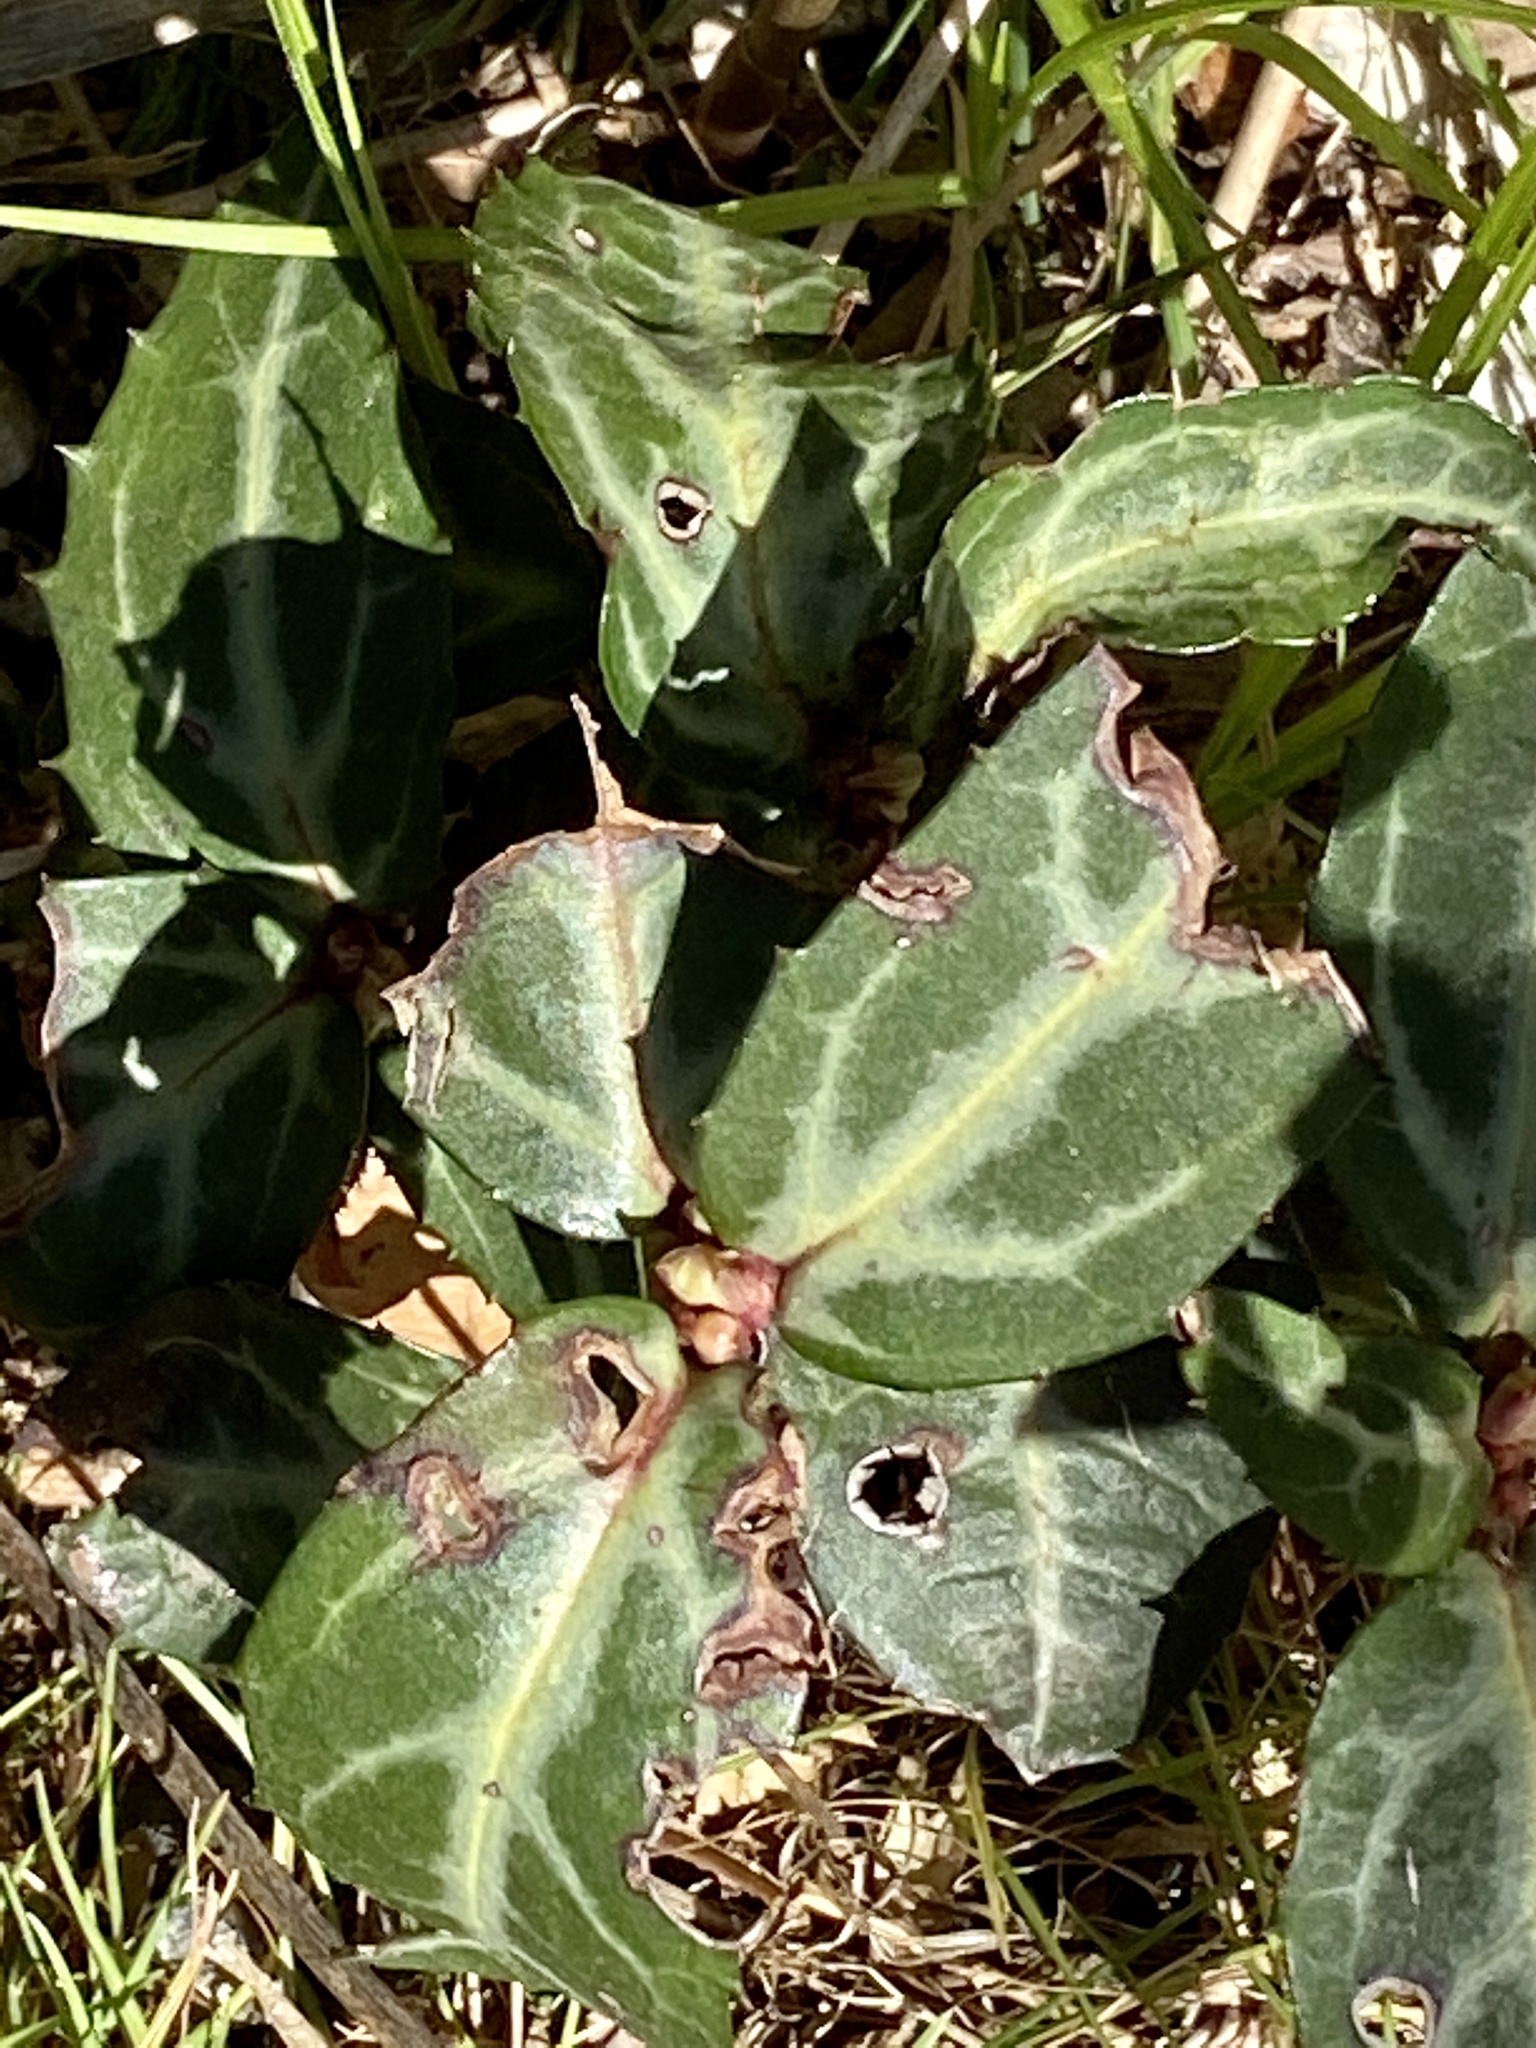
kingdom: Plantae
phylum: Tracheophyta
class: Magnoliopsida
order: Ericales
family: Ericaceae
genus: Chimaphila
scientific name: Chimaphila maculata
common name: Spotted pipsissewa
